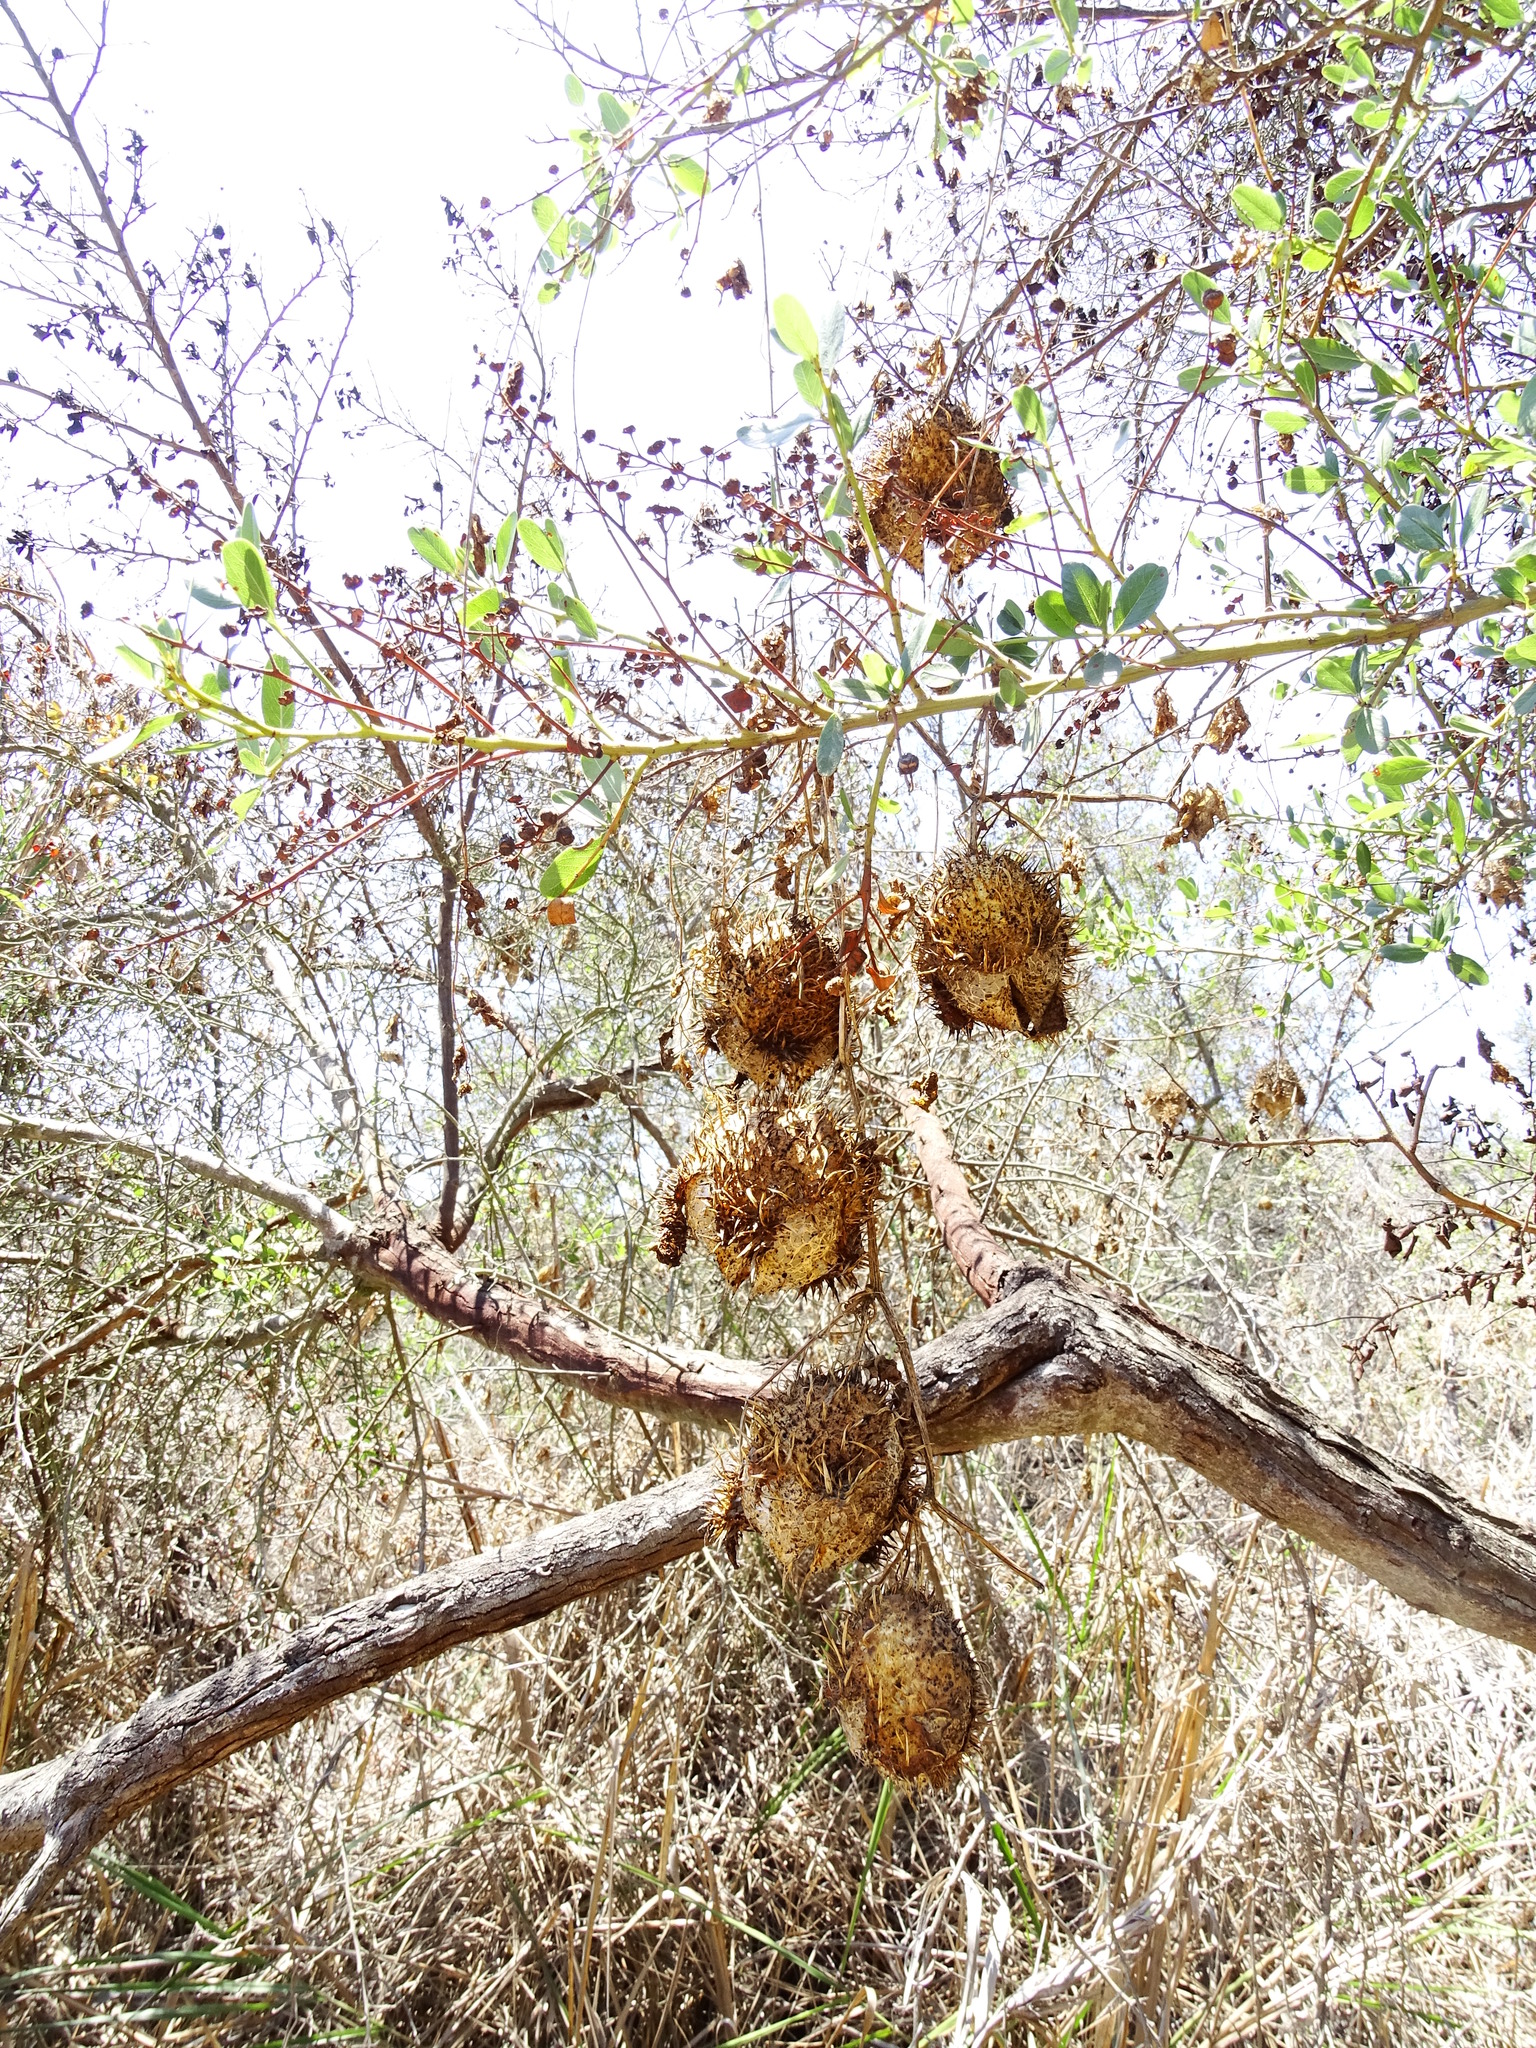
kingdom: Plantae
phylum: Tracheophyta
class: Magnoliopsida
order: Cucurbitales
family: Cucurbitaceae
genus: Marah
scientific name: Marah macrocarpa
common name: Cucamonga manroot
